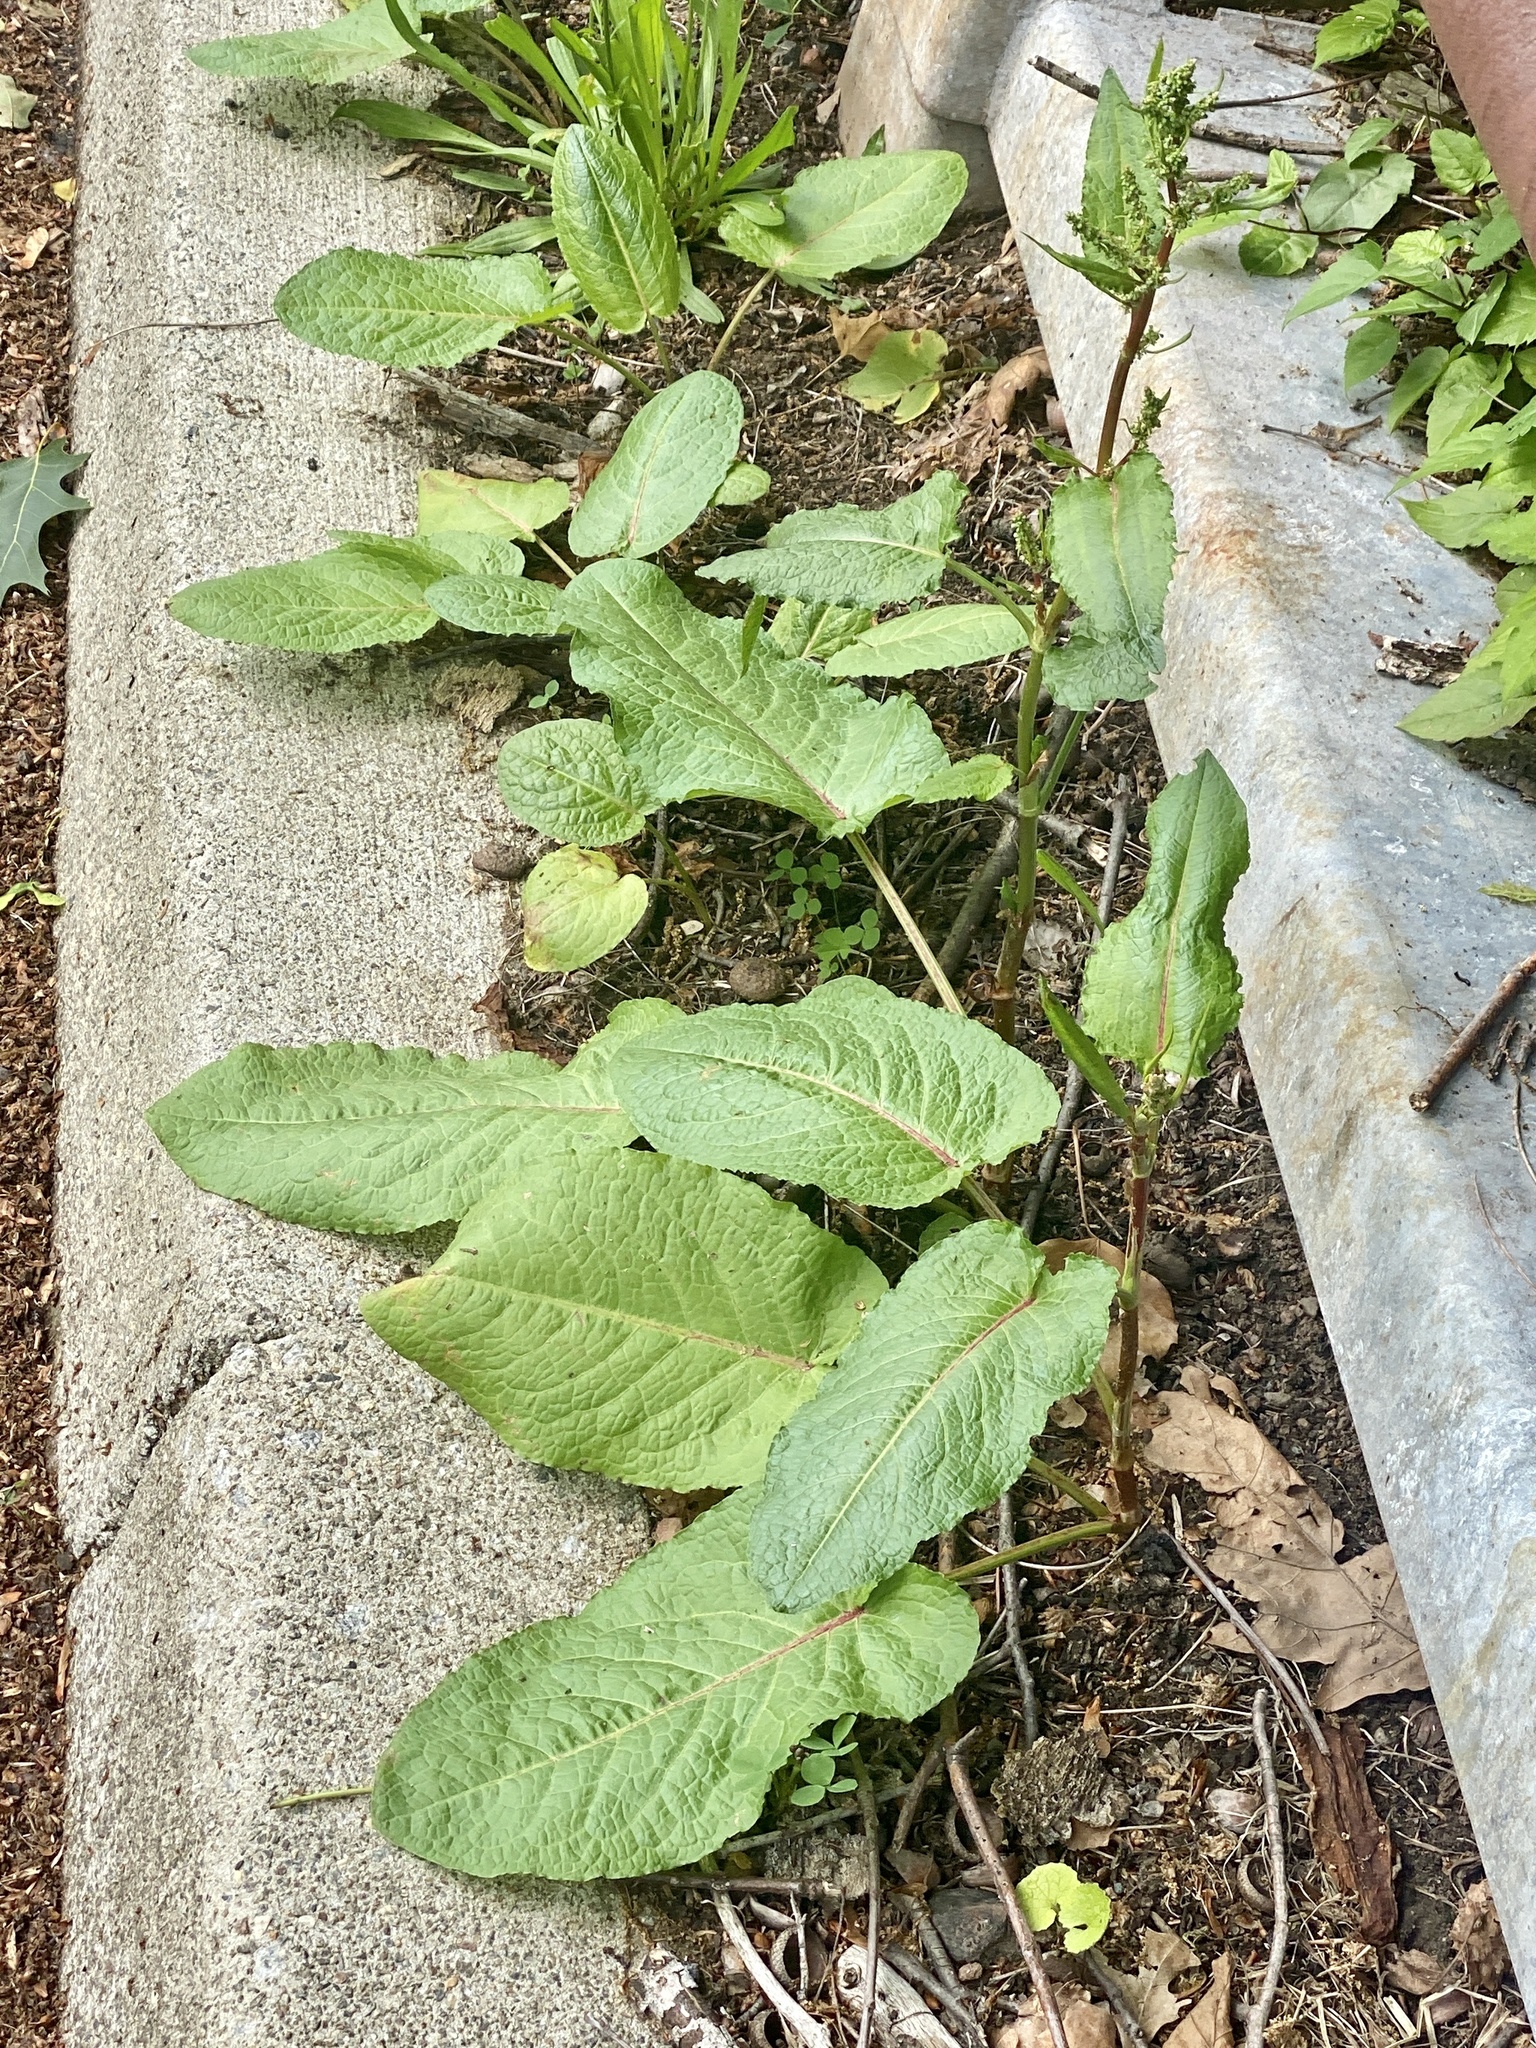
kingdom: Plantae
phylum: Tracheophyta
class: Magnoliopsida
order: Caryophyllales
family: Polygonaceae
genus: Rumex
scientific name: Rumex obtusifolius
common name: Bitter dock
